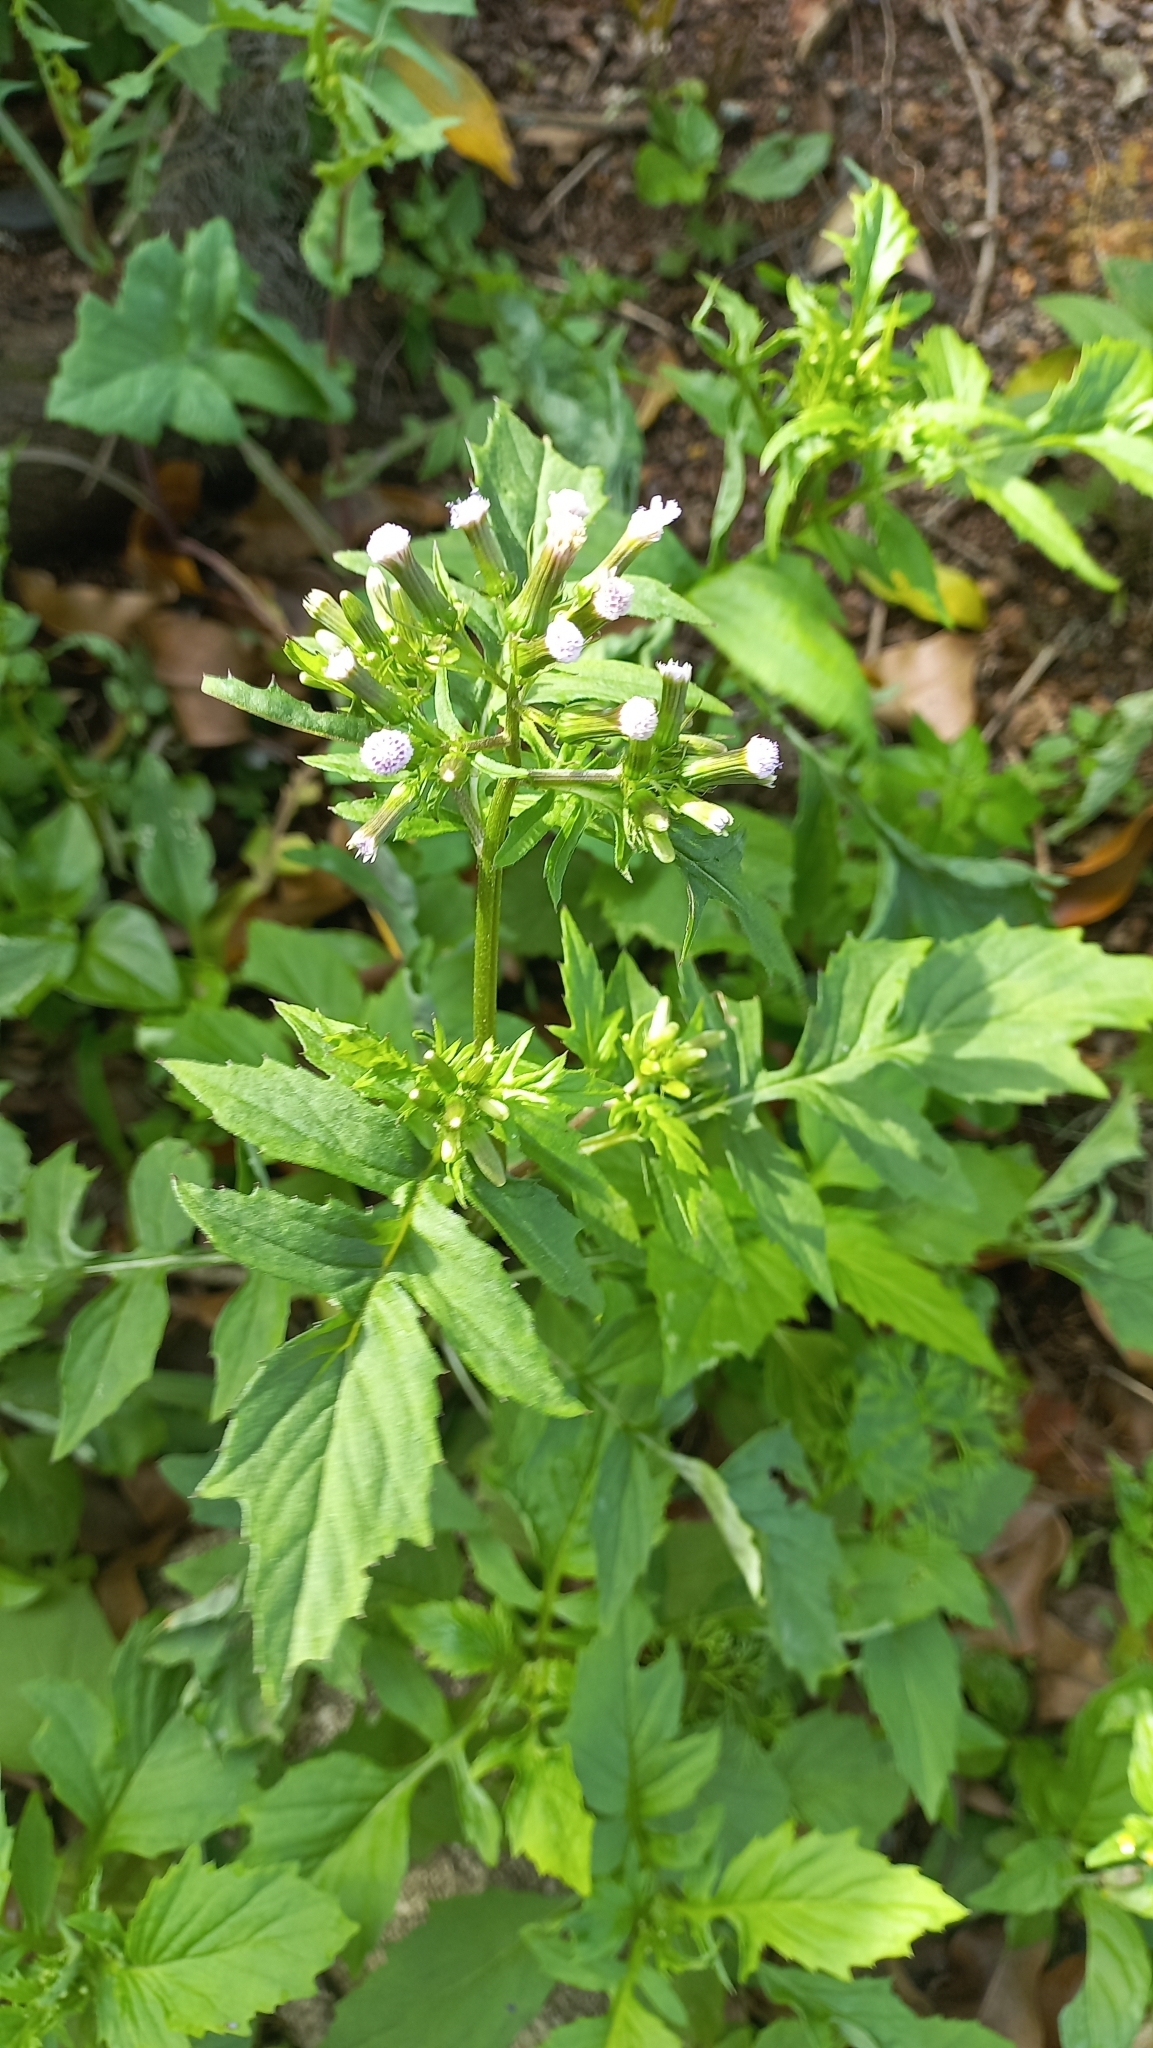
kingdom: Plantae
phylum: Tracheophyta
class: Magnoliopsida
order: Asterales
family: Asteraceae
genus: Erechtites
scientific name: Erechtites valerianifolius
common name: Tropical burnweed
